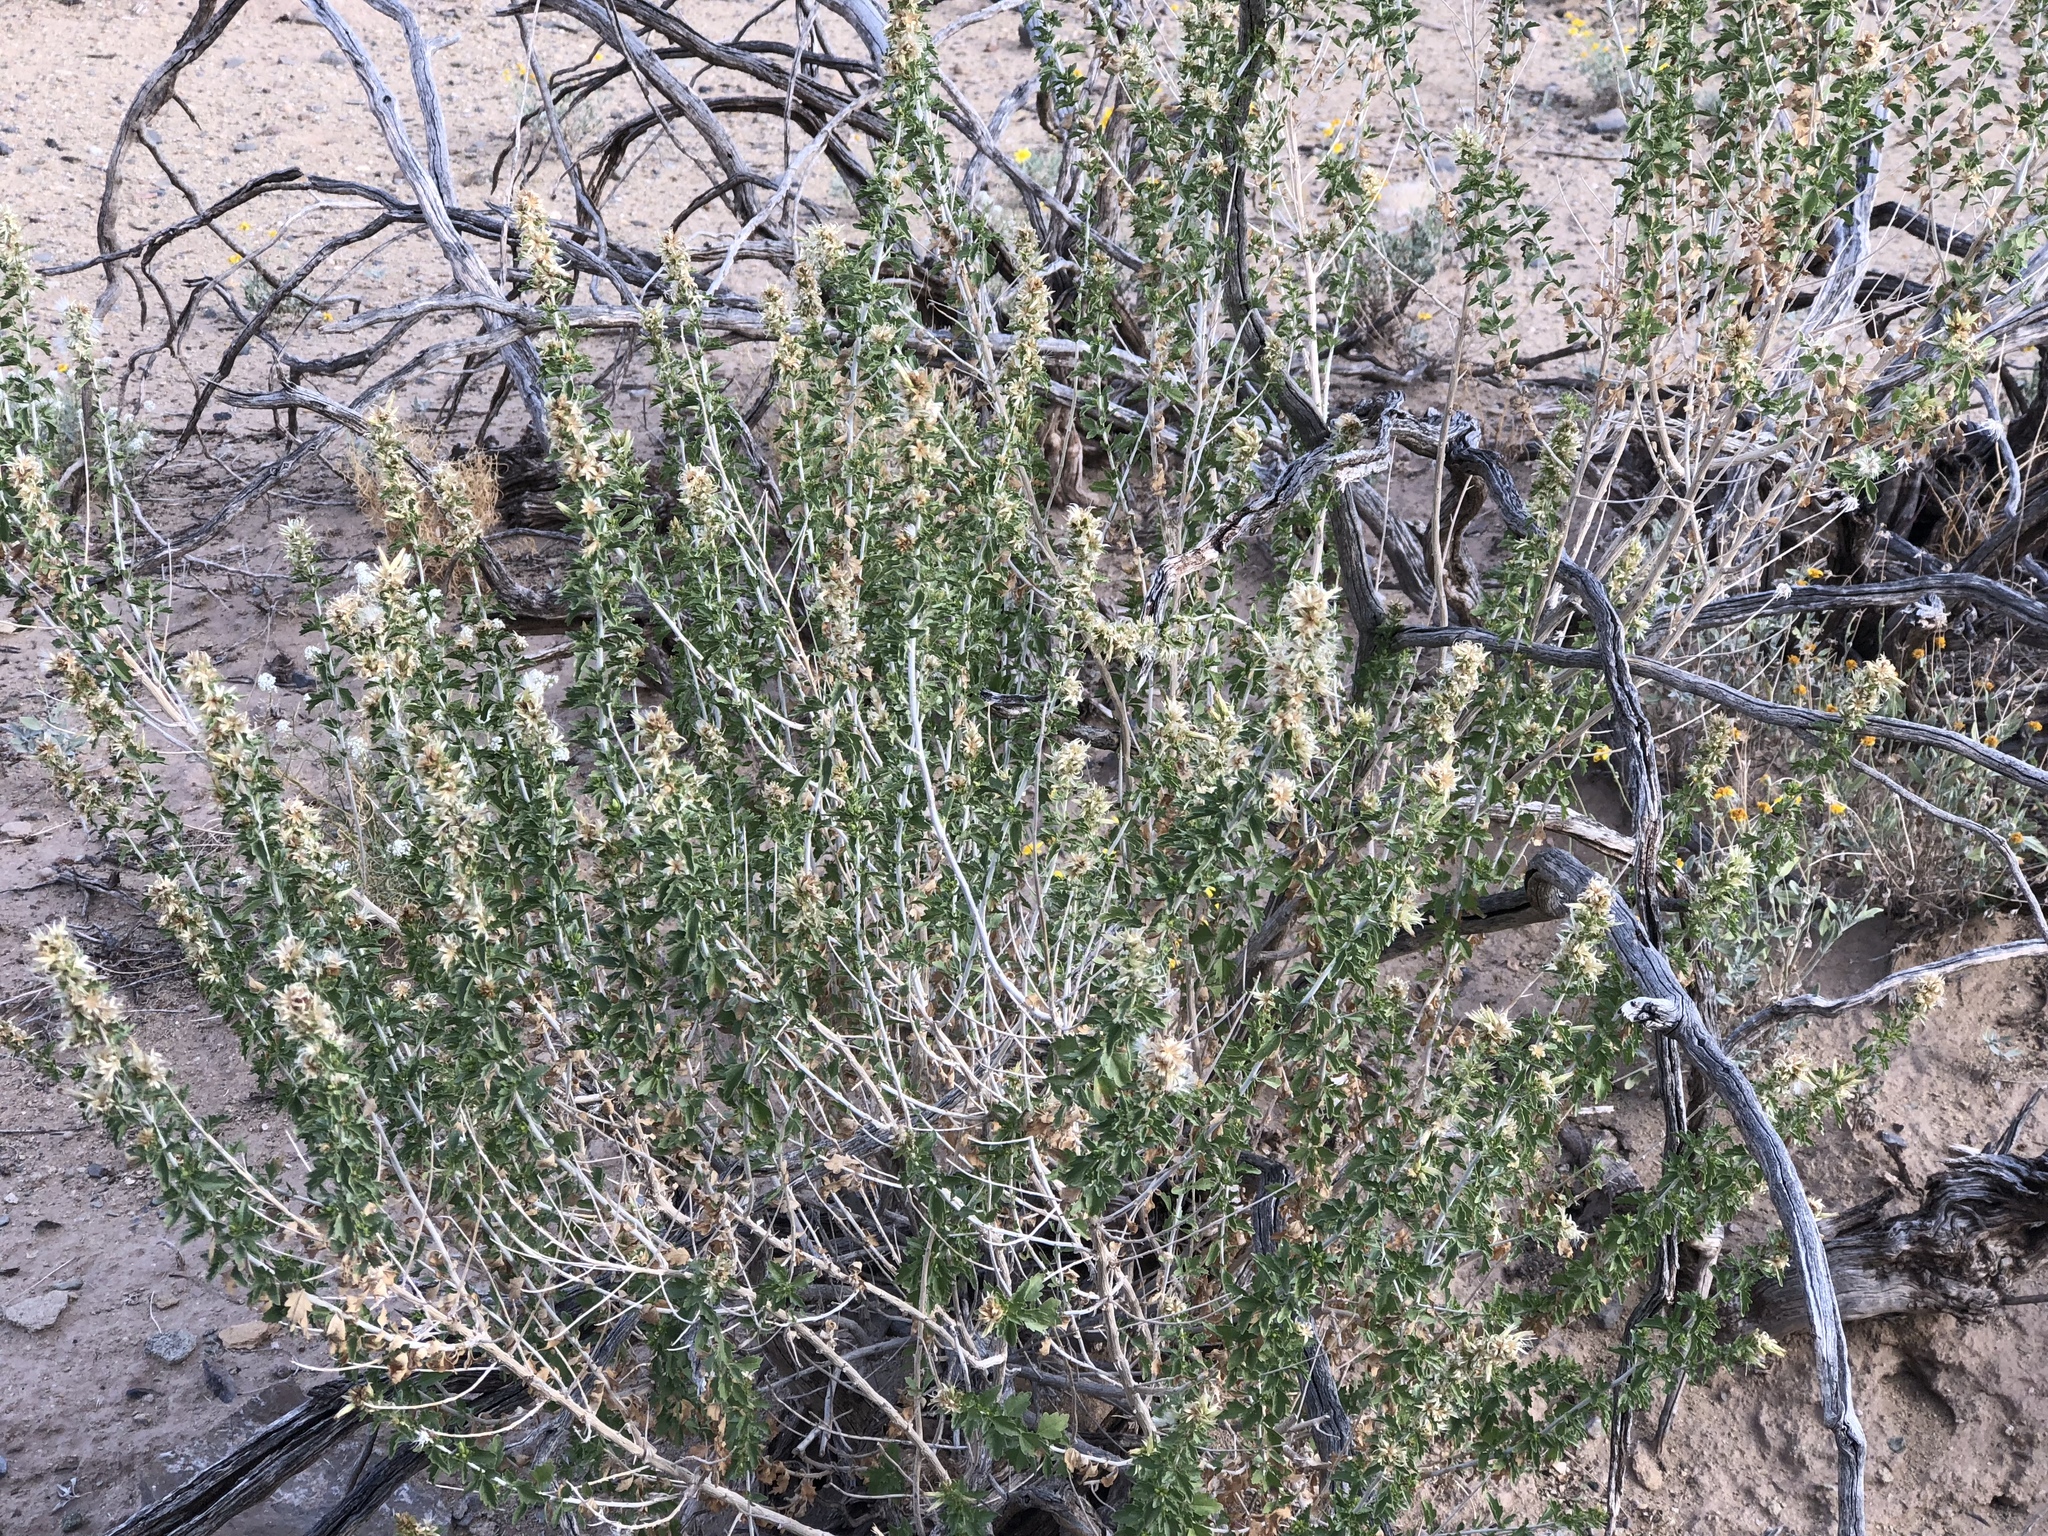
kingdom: Plantae
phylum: Tracheophyta
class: Magnoliopsida
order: Asterales
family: Asteraceae
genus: Brickellia
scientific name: Brickellia laciniata
